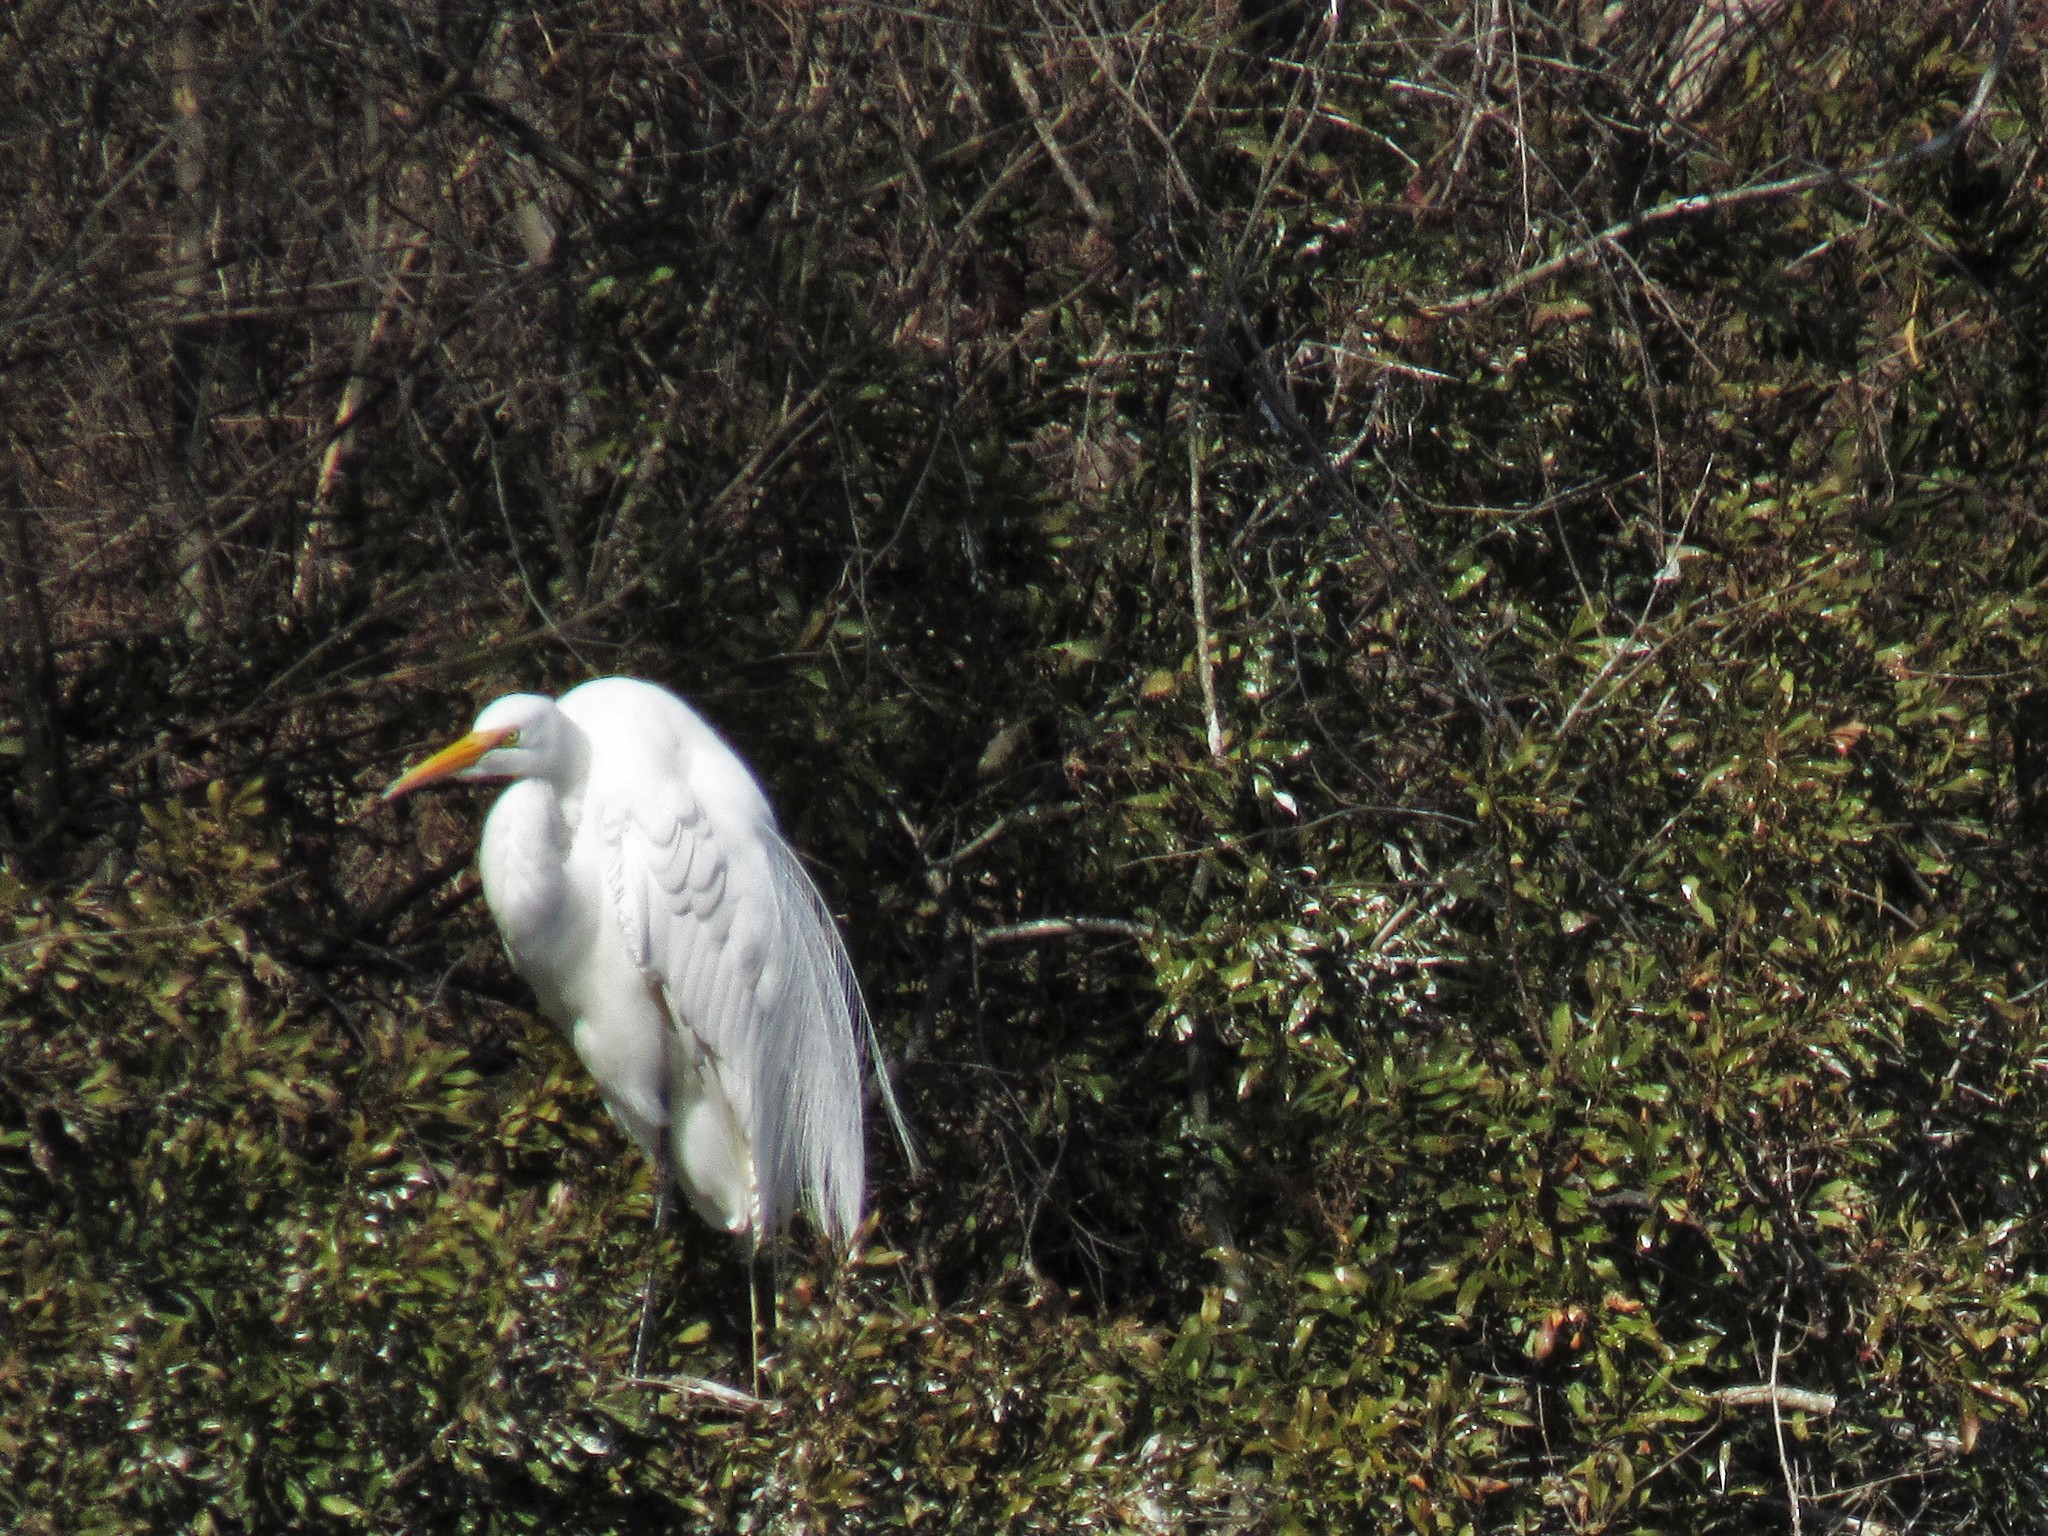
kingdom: Animalia
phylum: Chordata
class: Aves
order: Pelecaniformes
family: Ardeidae
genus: Ardea
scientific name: Ardea alba
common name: Great egret
